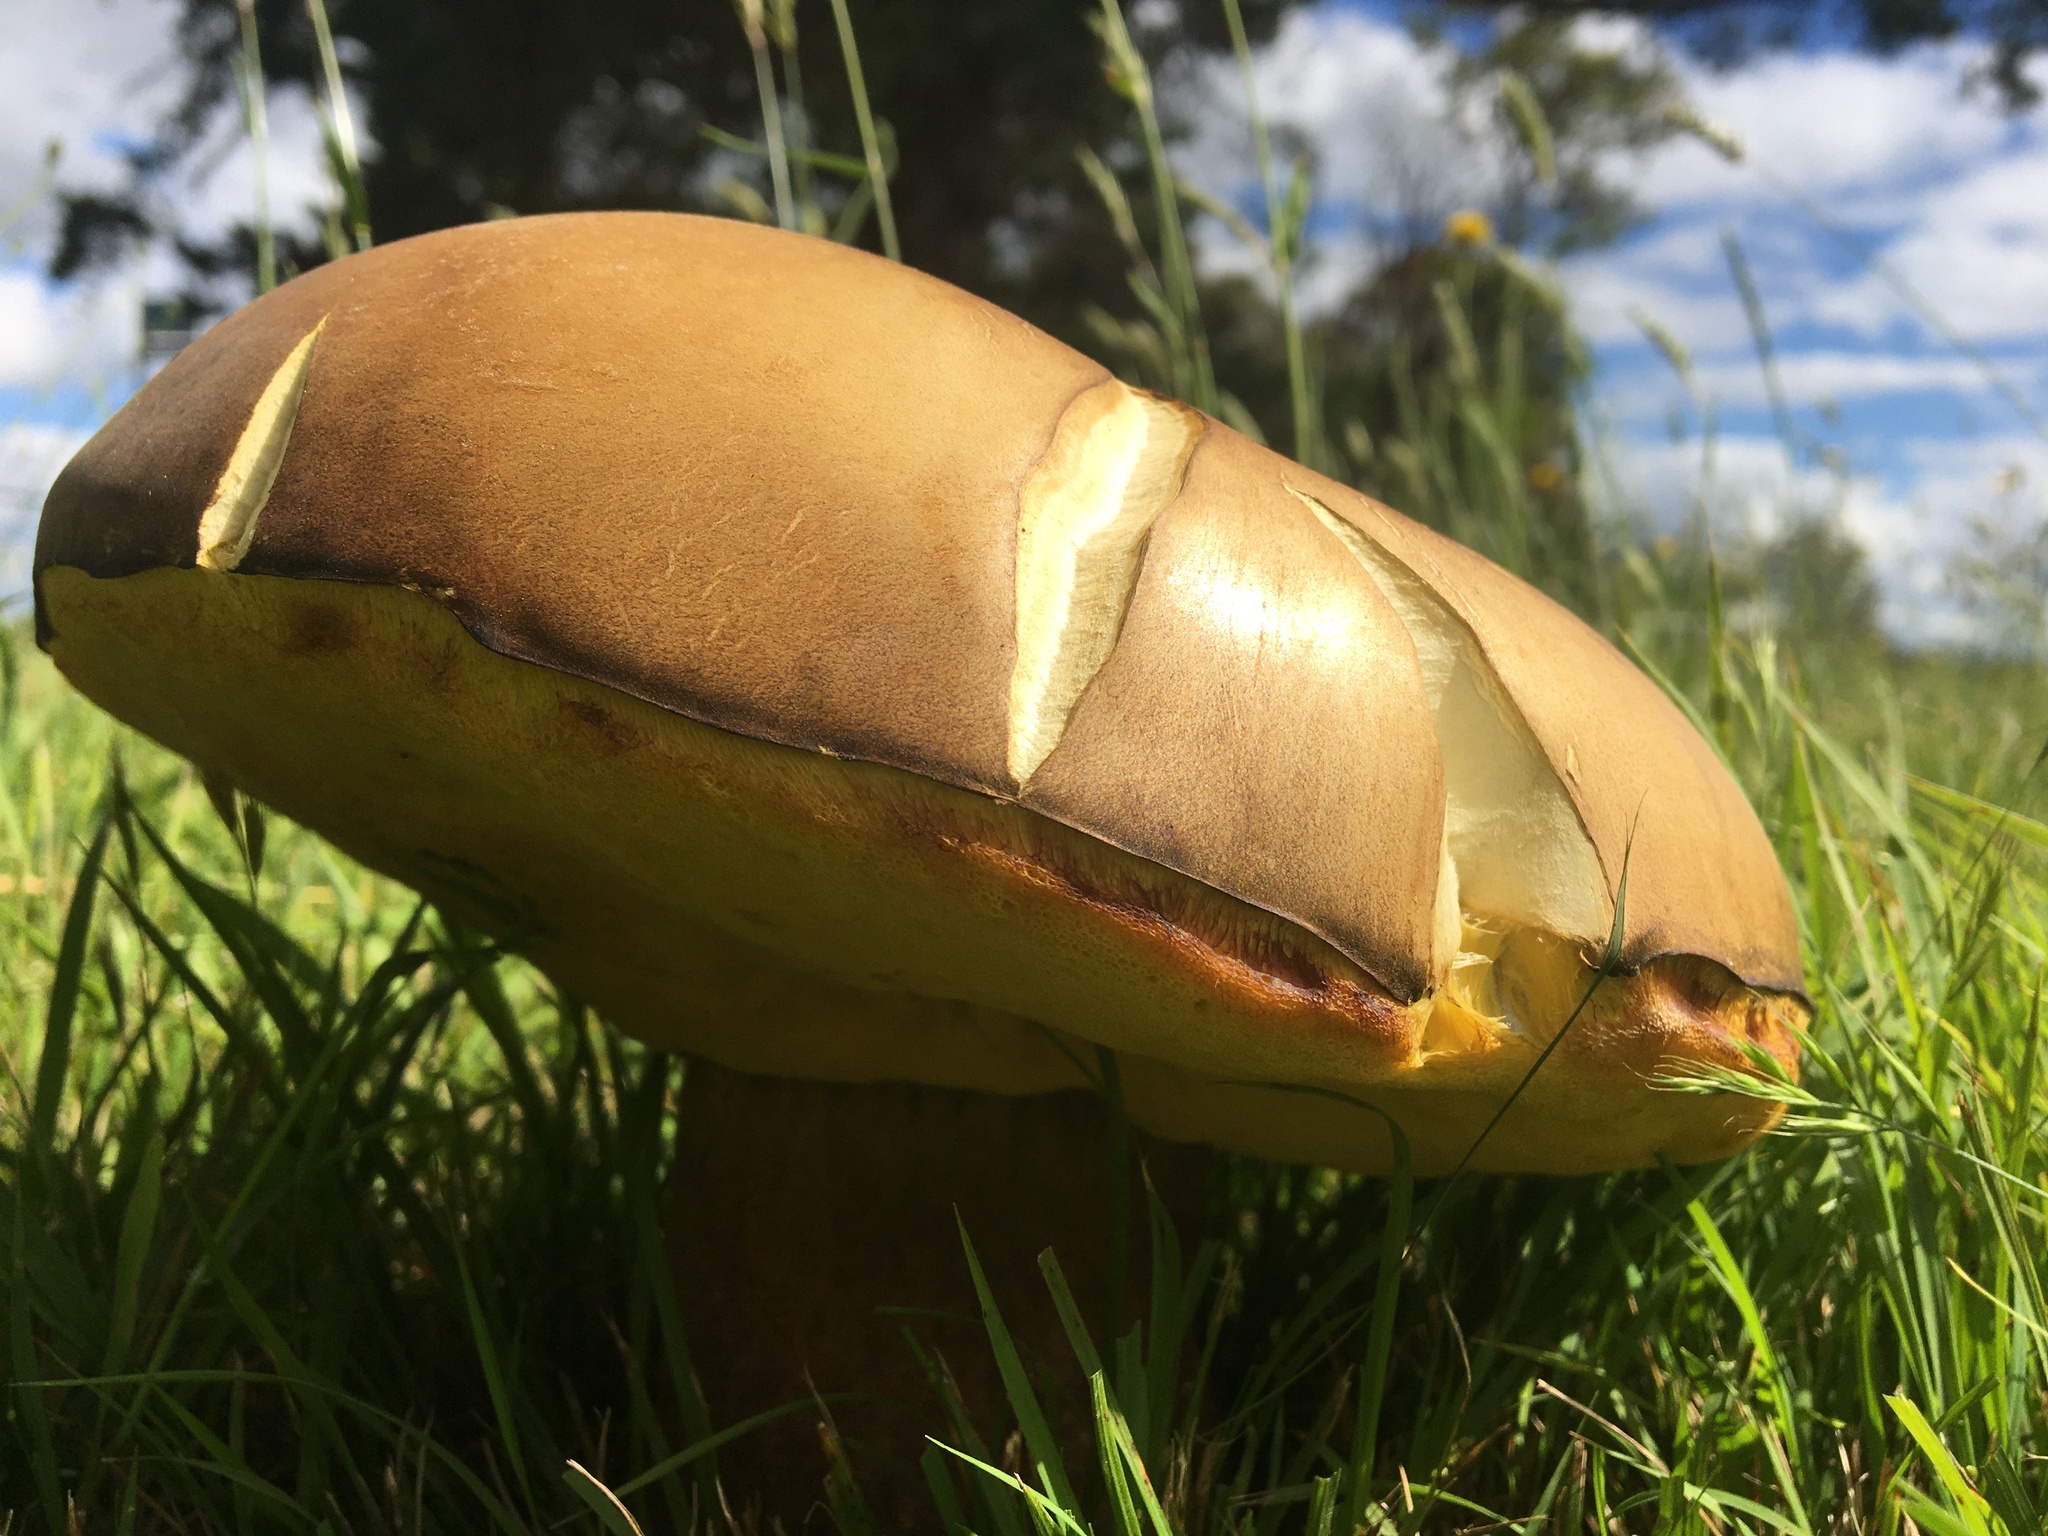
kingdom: Fungi
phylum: Basidiomycota
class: Agaricomycetes
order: Boletales
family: Boletinellaceae
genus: Phlebopus
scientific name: Phlebopus marginatus
